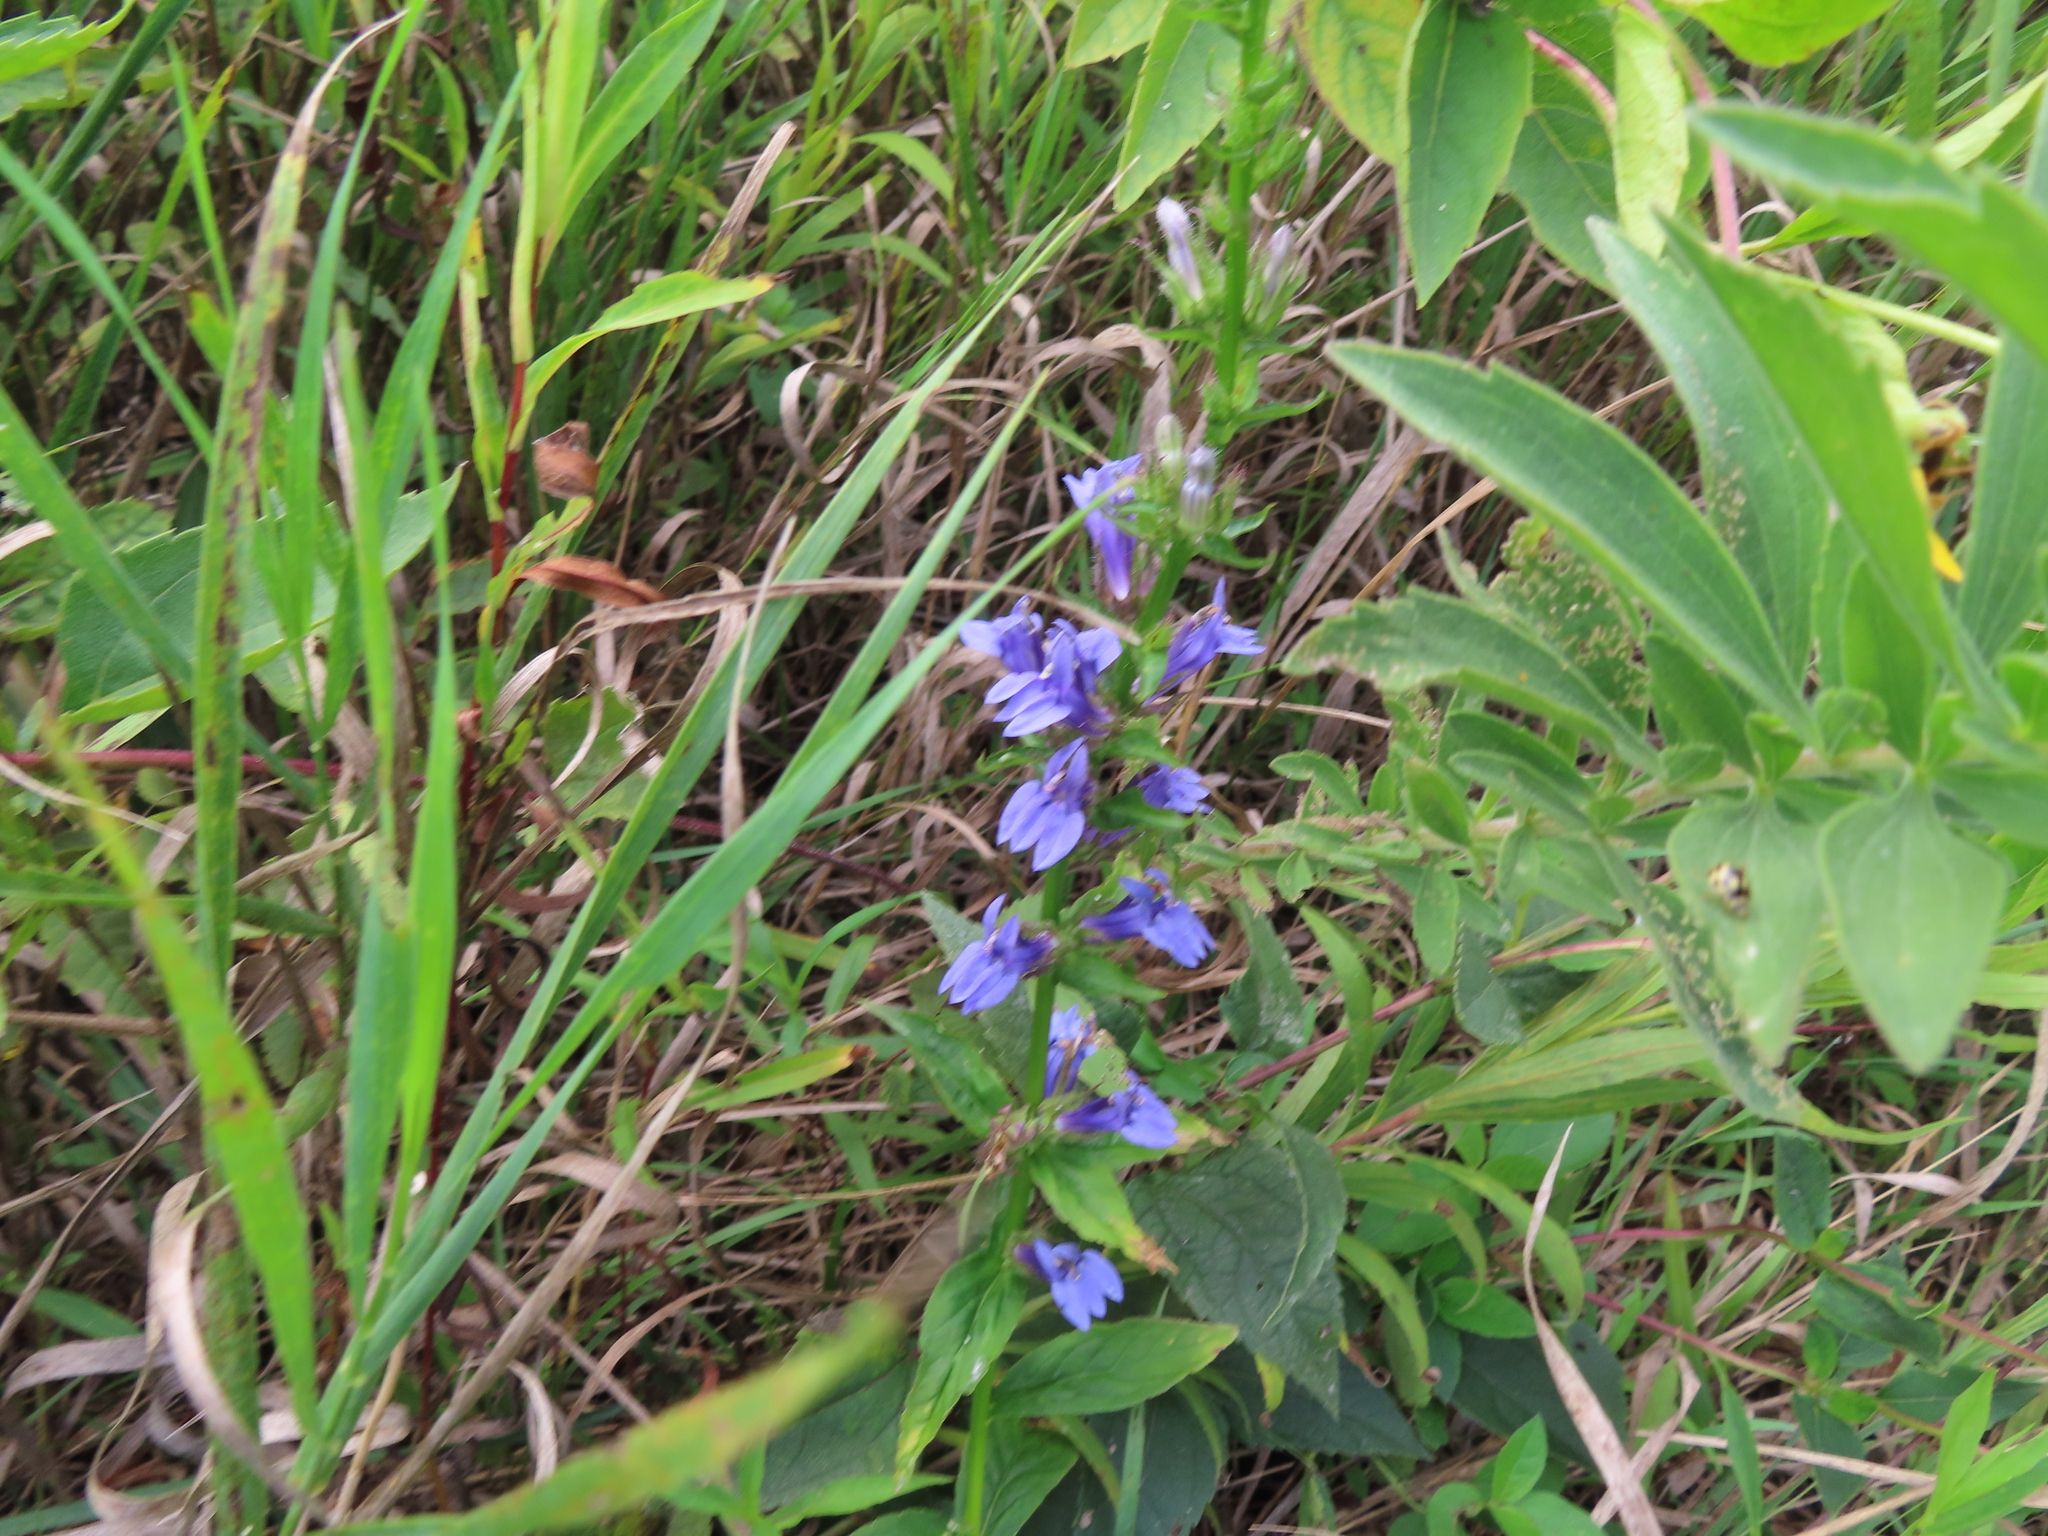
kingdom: Plantae
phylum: Tracheophyta
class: Magnoliopsida
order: Asterales
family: Campanulaceae
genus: Lobelia
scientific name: Lobelia siphilitica
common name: Great lobelia
